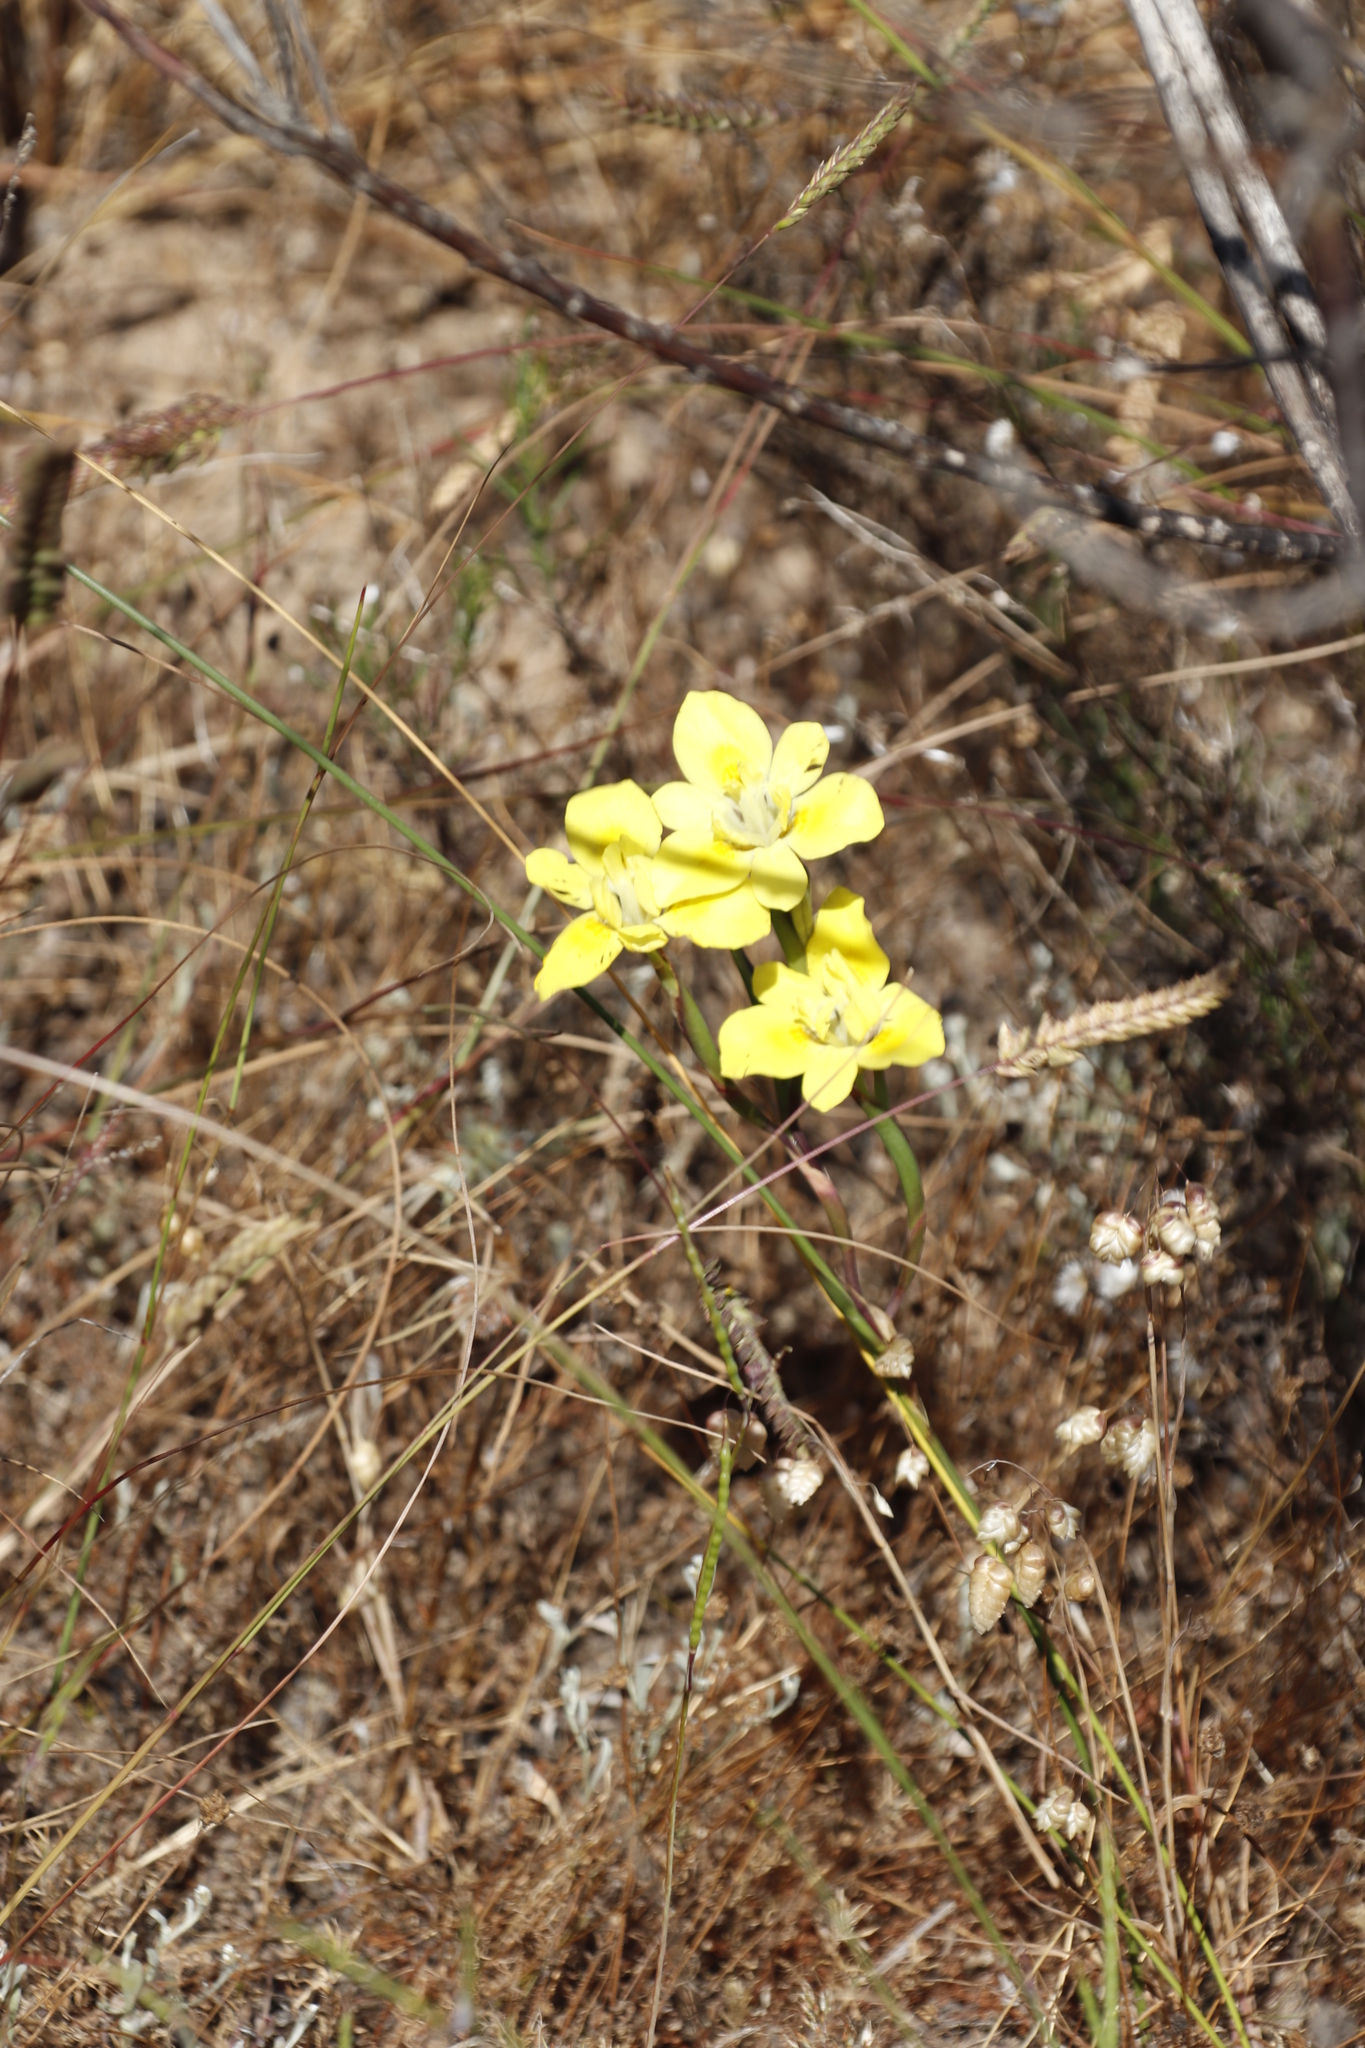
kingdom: Plantae
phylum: Tracheophyta
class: Liliopsida
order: Asparagales
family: Iridaceae
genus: Moraea
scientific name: Moraea fugax
